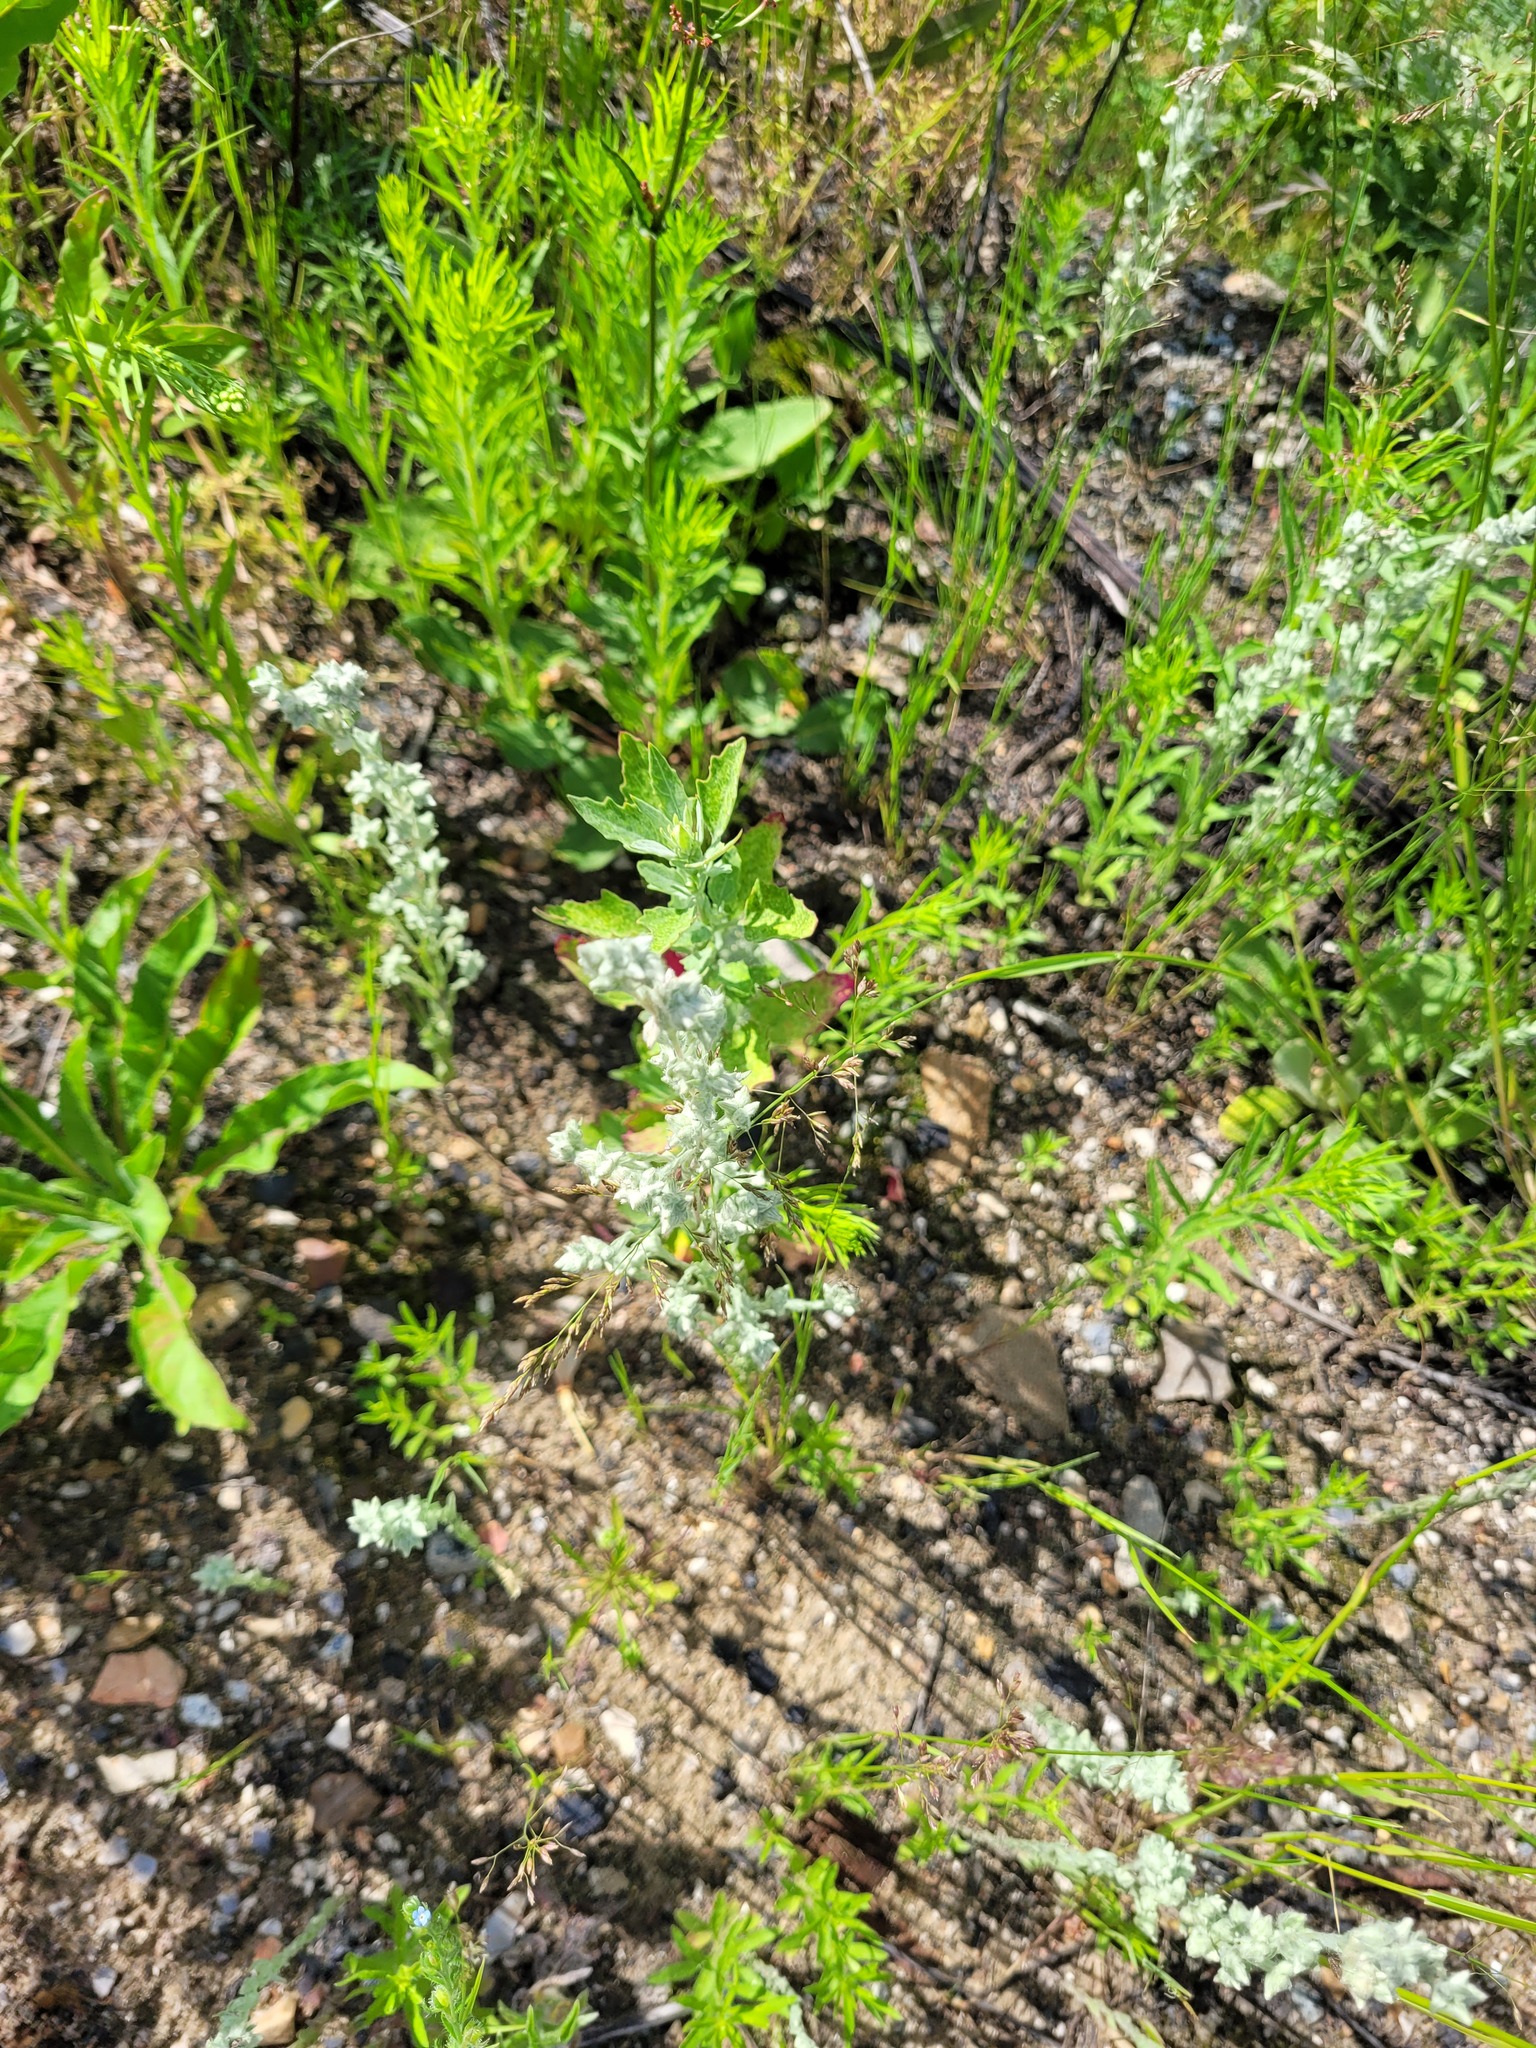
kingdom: Plantae
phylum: Tracheophyta
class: Magnoliopsida
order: Asterales
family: Asteraceae
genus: Filago
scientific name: Filago arvensis
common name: Field cudweed
